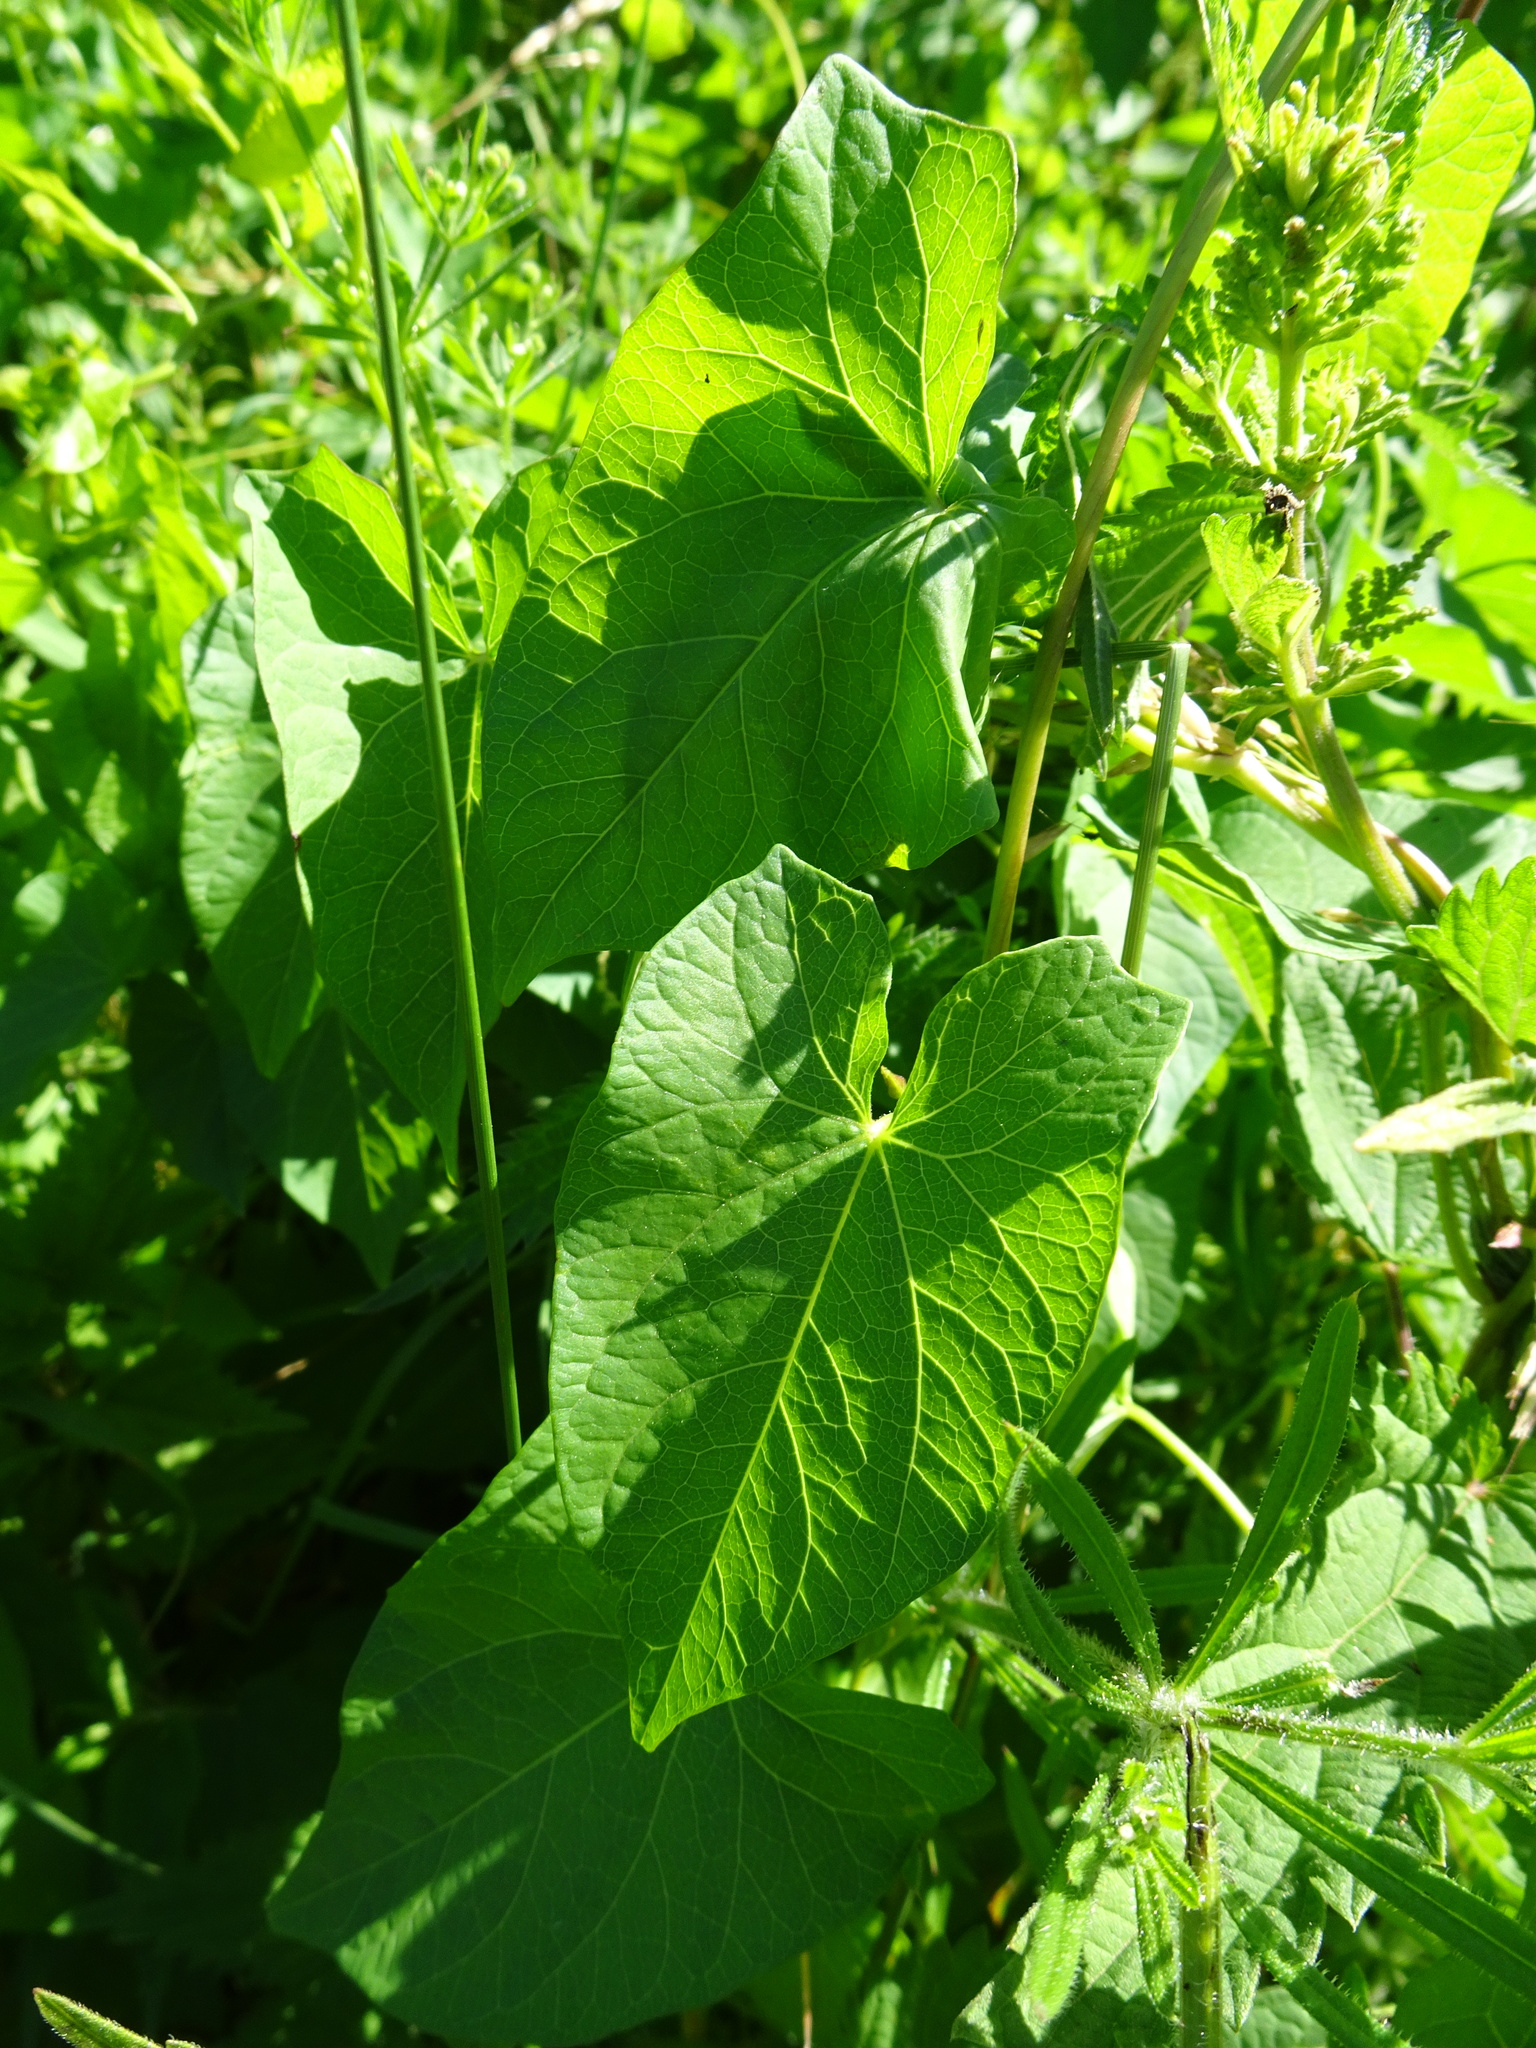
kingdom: Plantae
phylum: Tracheophyta
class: Magnoliopsida
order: Solanales
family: Convolvulaceae
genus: Calystegia
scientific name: Calystegia sepium
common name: Hedge bindweed
